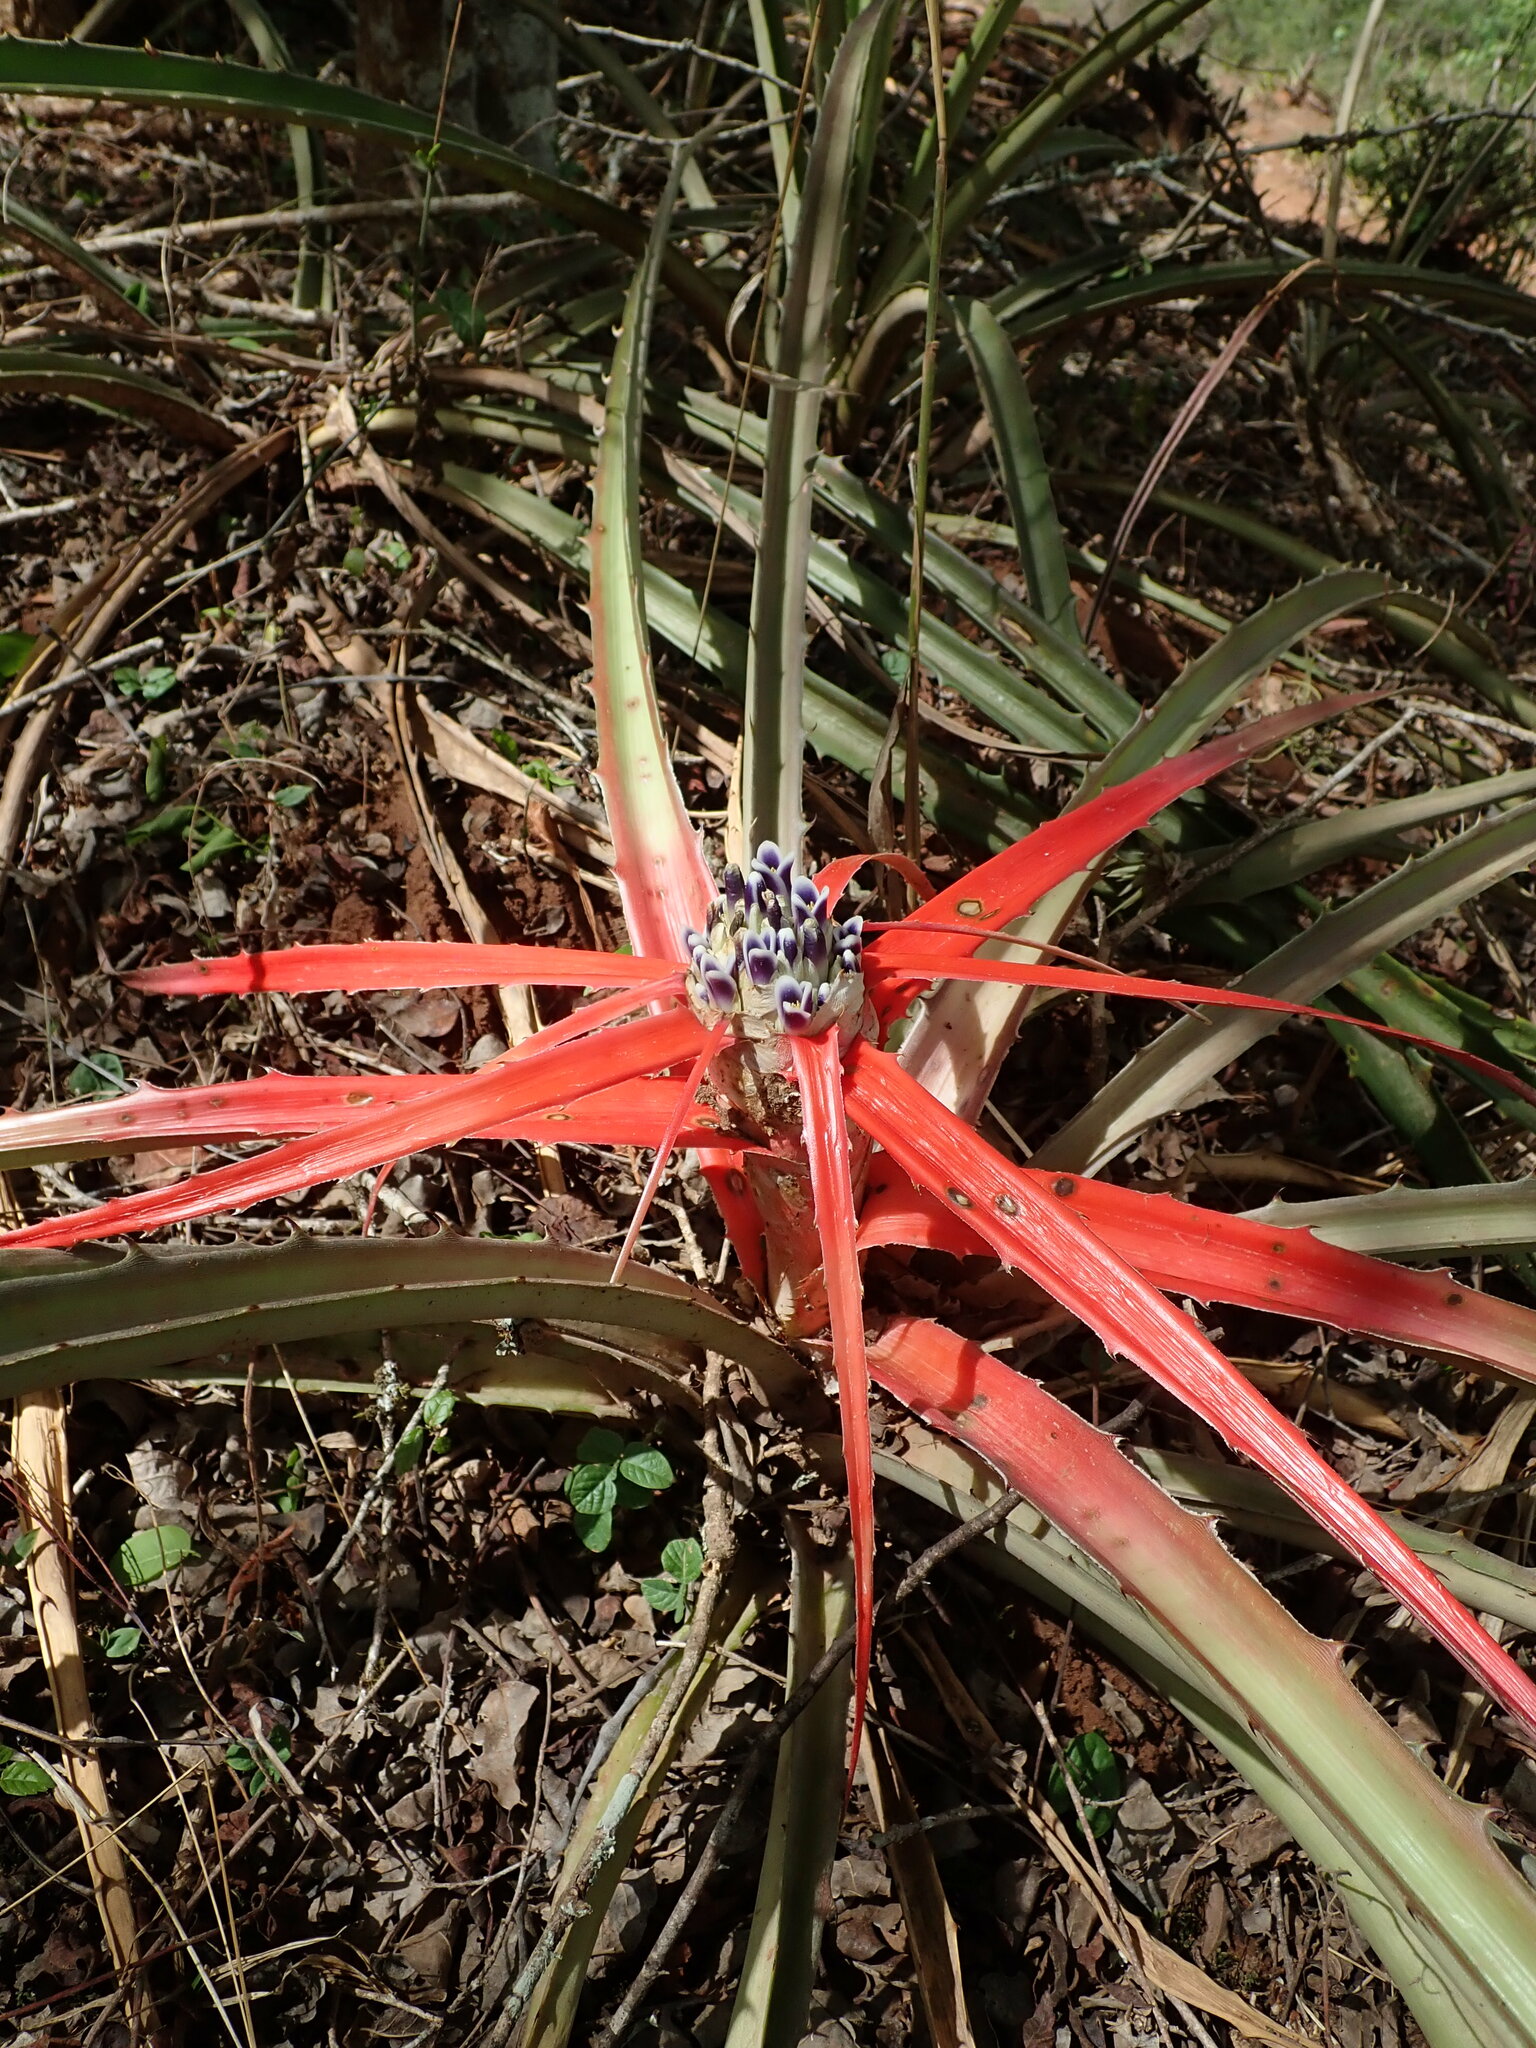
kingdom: Plantae
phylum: Tracheophyta
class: Liliopsida
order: Poales
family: Bromeliaceae
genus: Bromelia
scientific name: Bromelia serra
